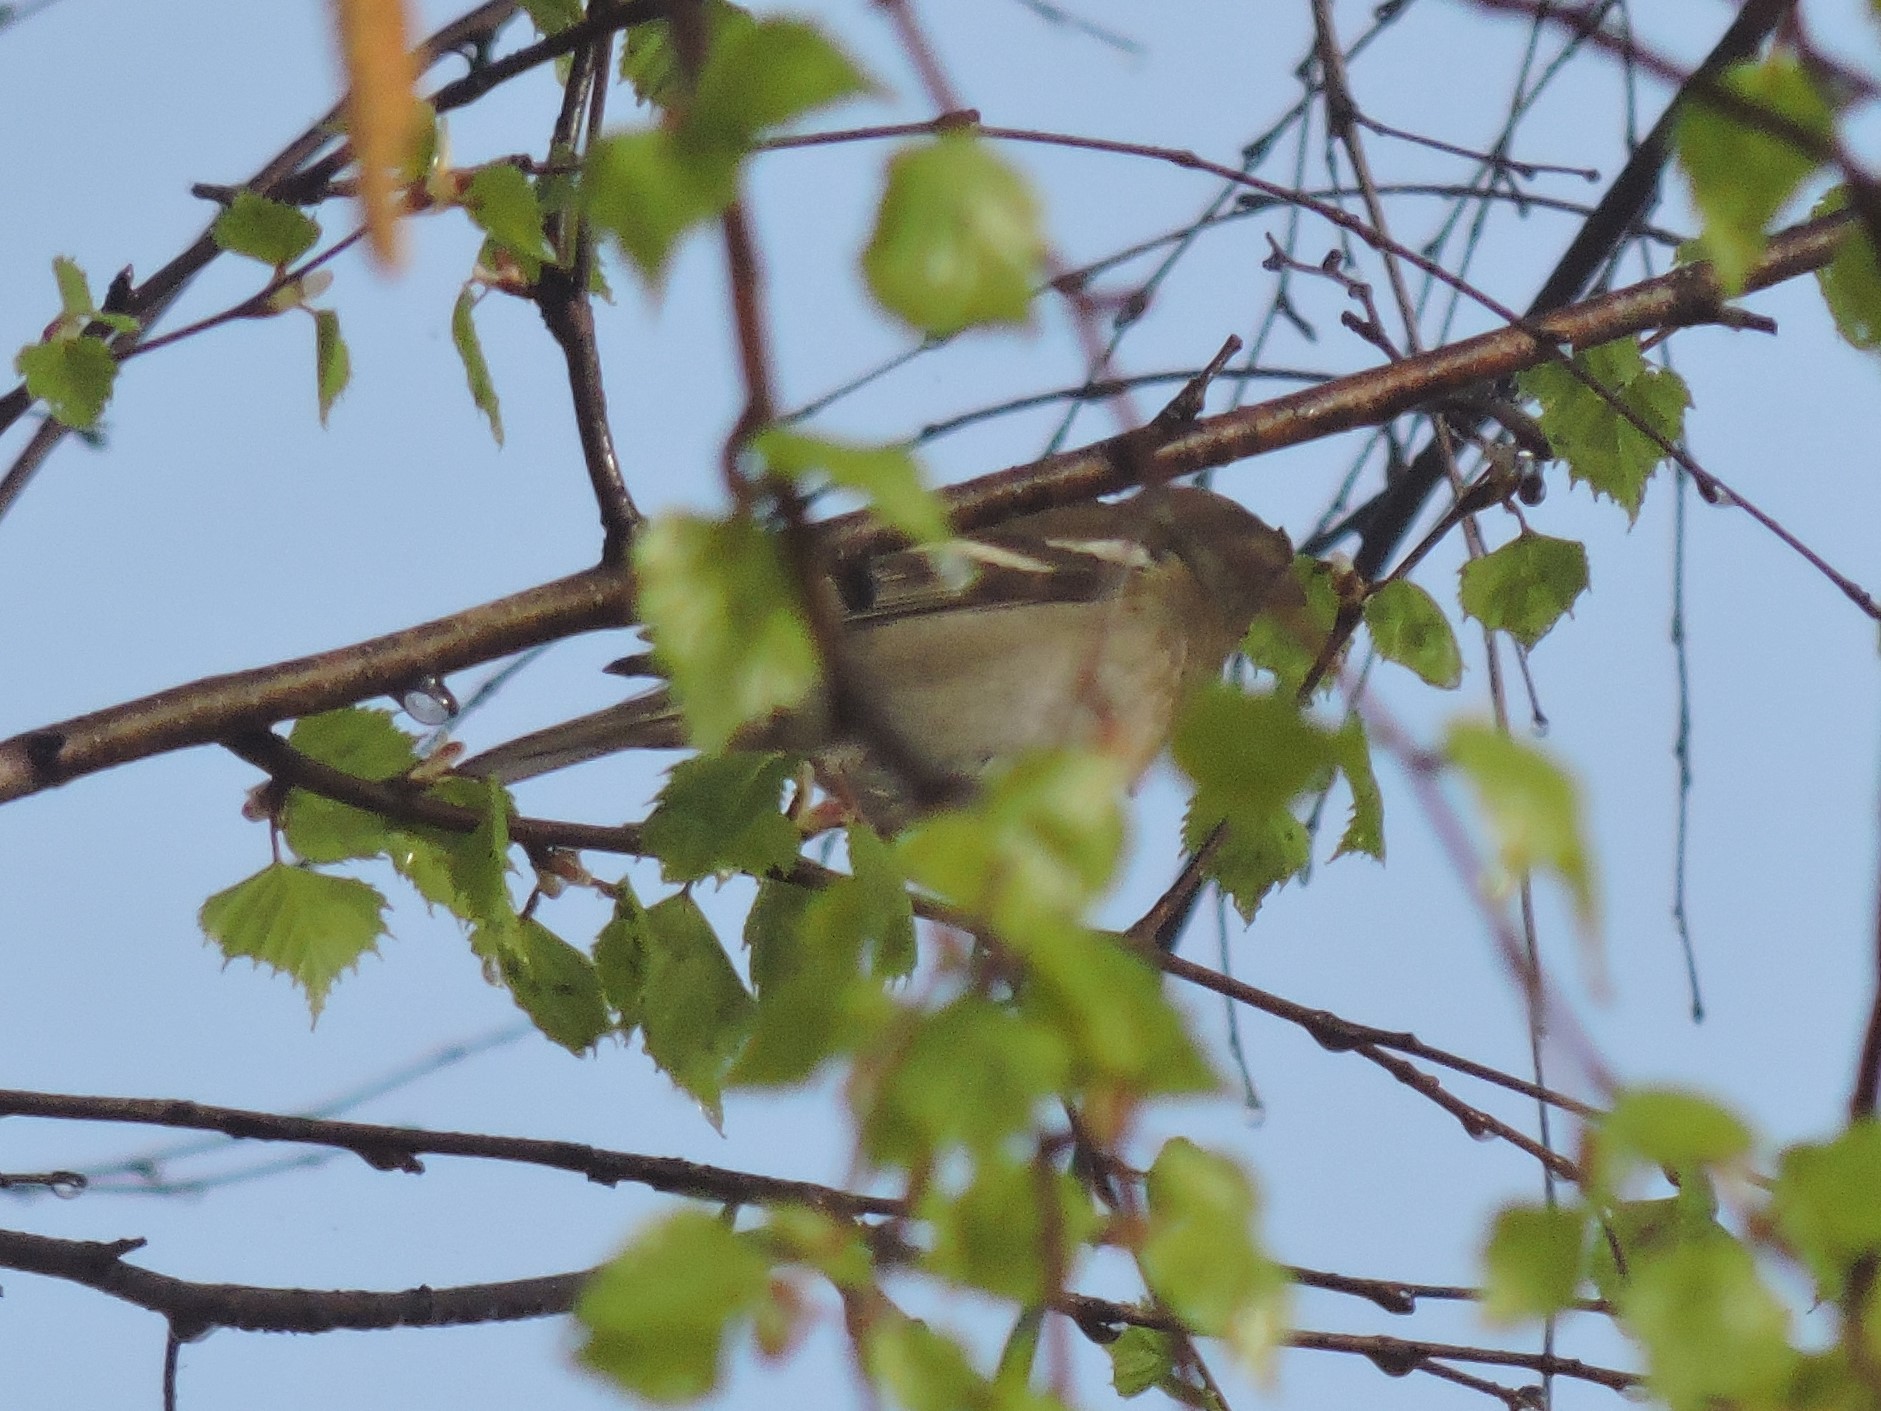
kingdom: Animalia
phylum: Chordata
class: Aves
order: Passeriformes
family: Fringillidae
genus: Fringilla
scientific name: Fringilla coelebs
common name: Common chaffinch
